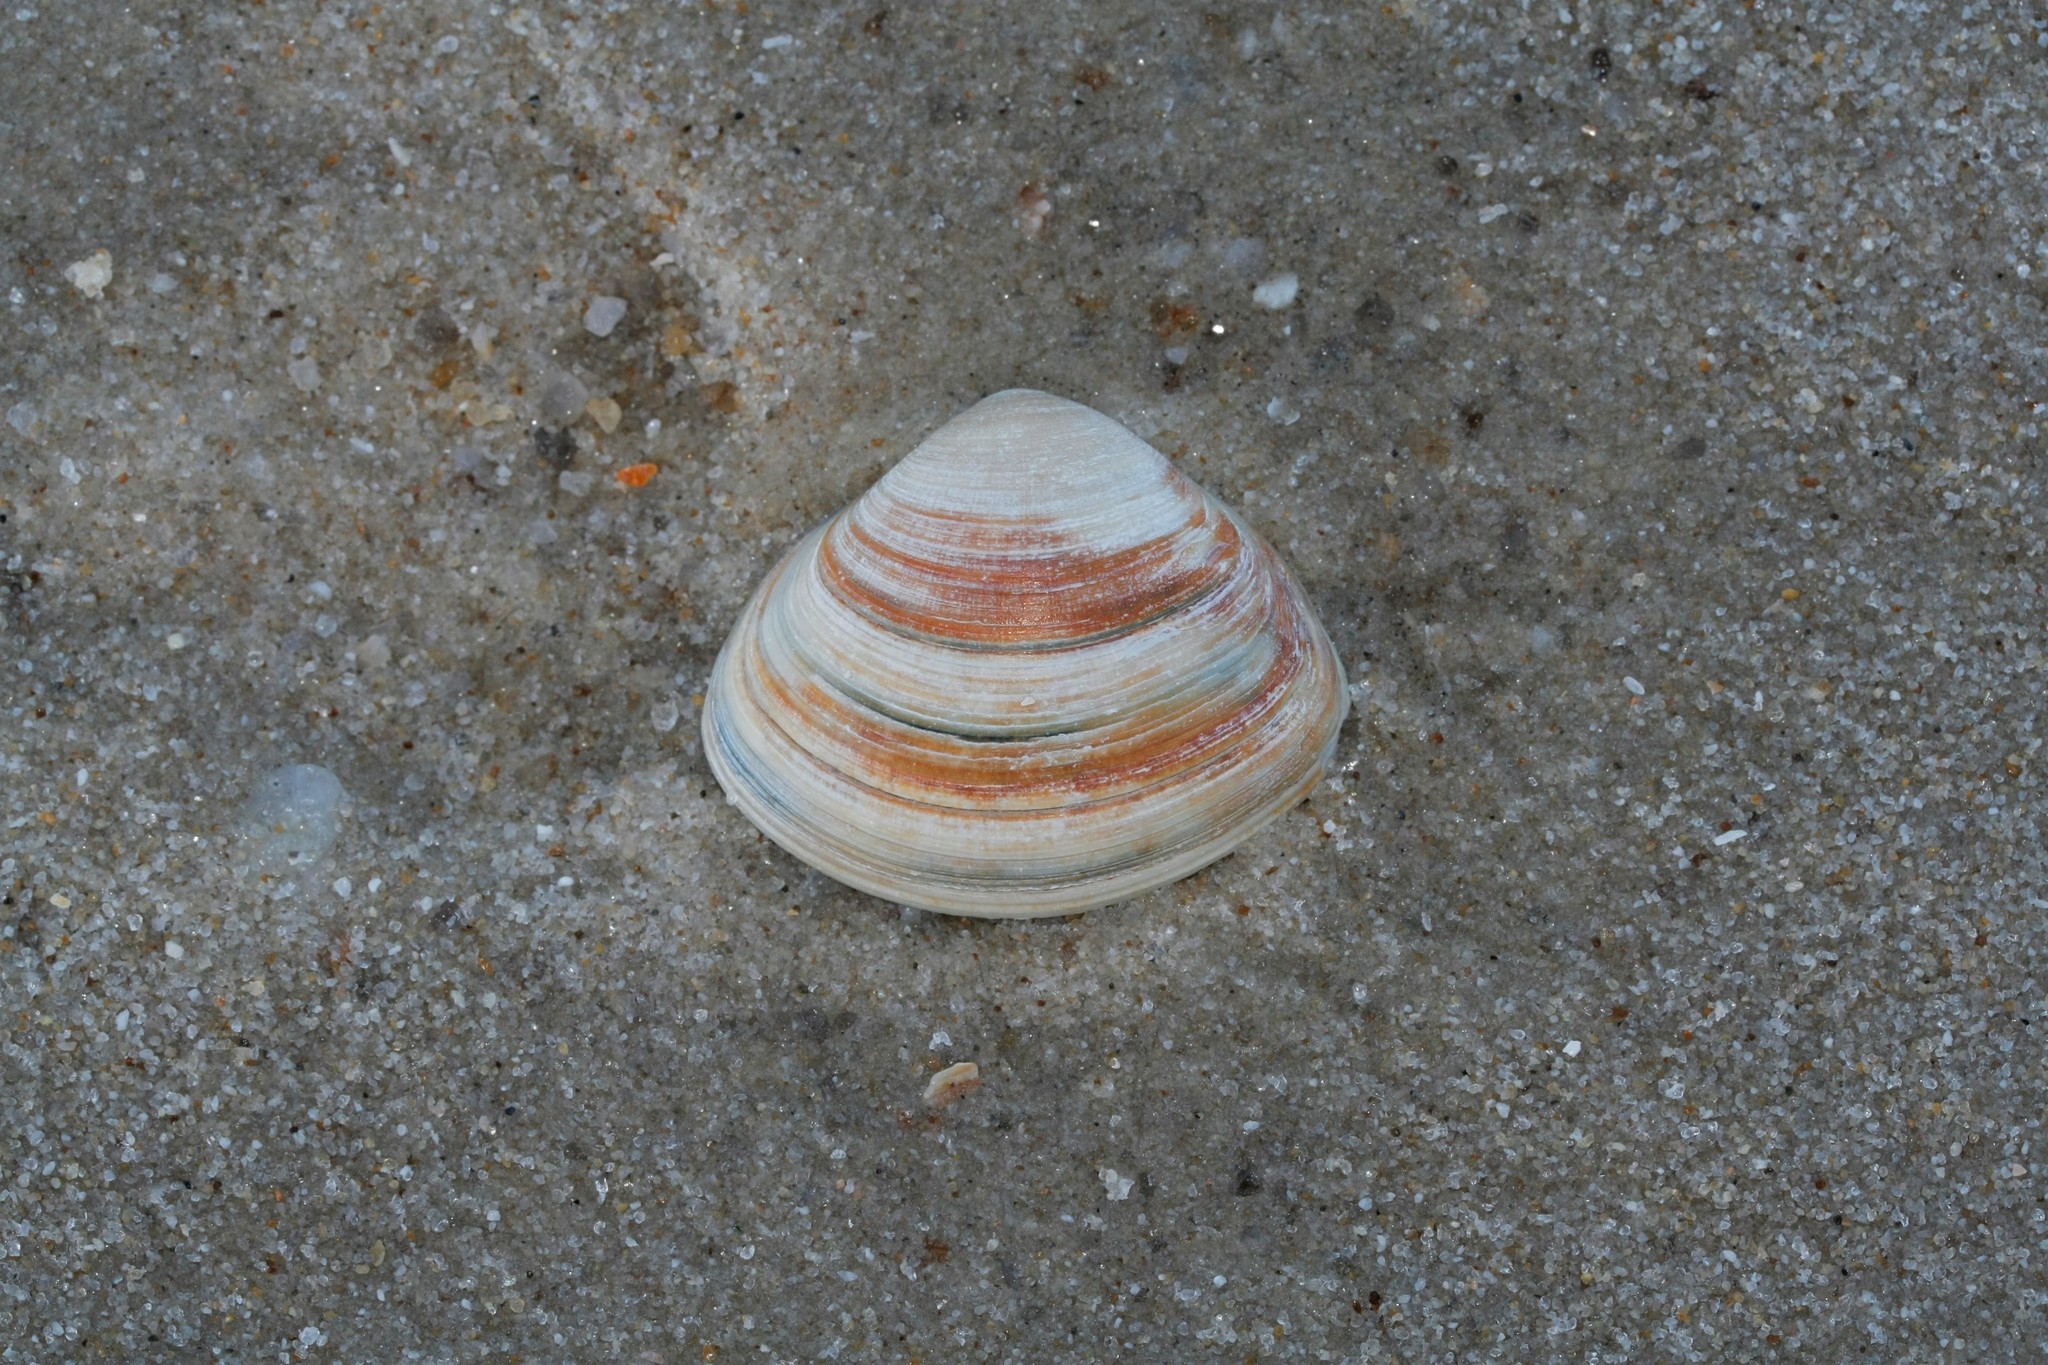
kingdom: Animalia
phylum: Mollusca
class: Bivalvia
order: Venerida
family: Mactridae
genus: Spisula
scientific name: Spisula solida
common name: Thick trough shell
